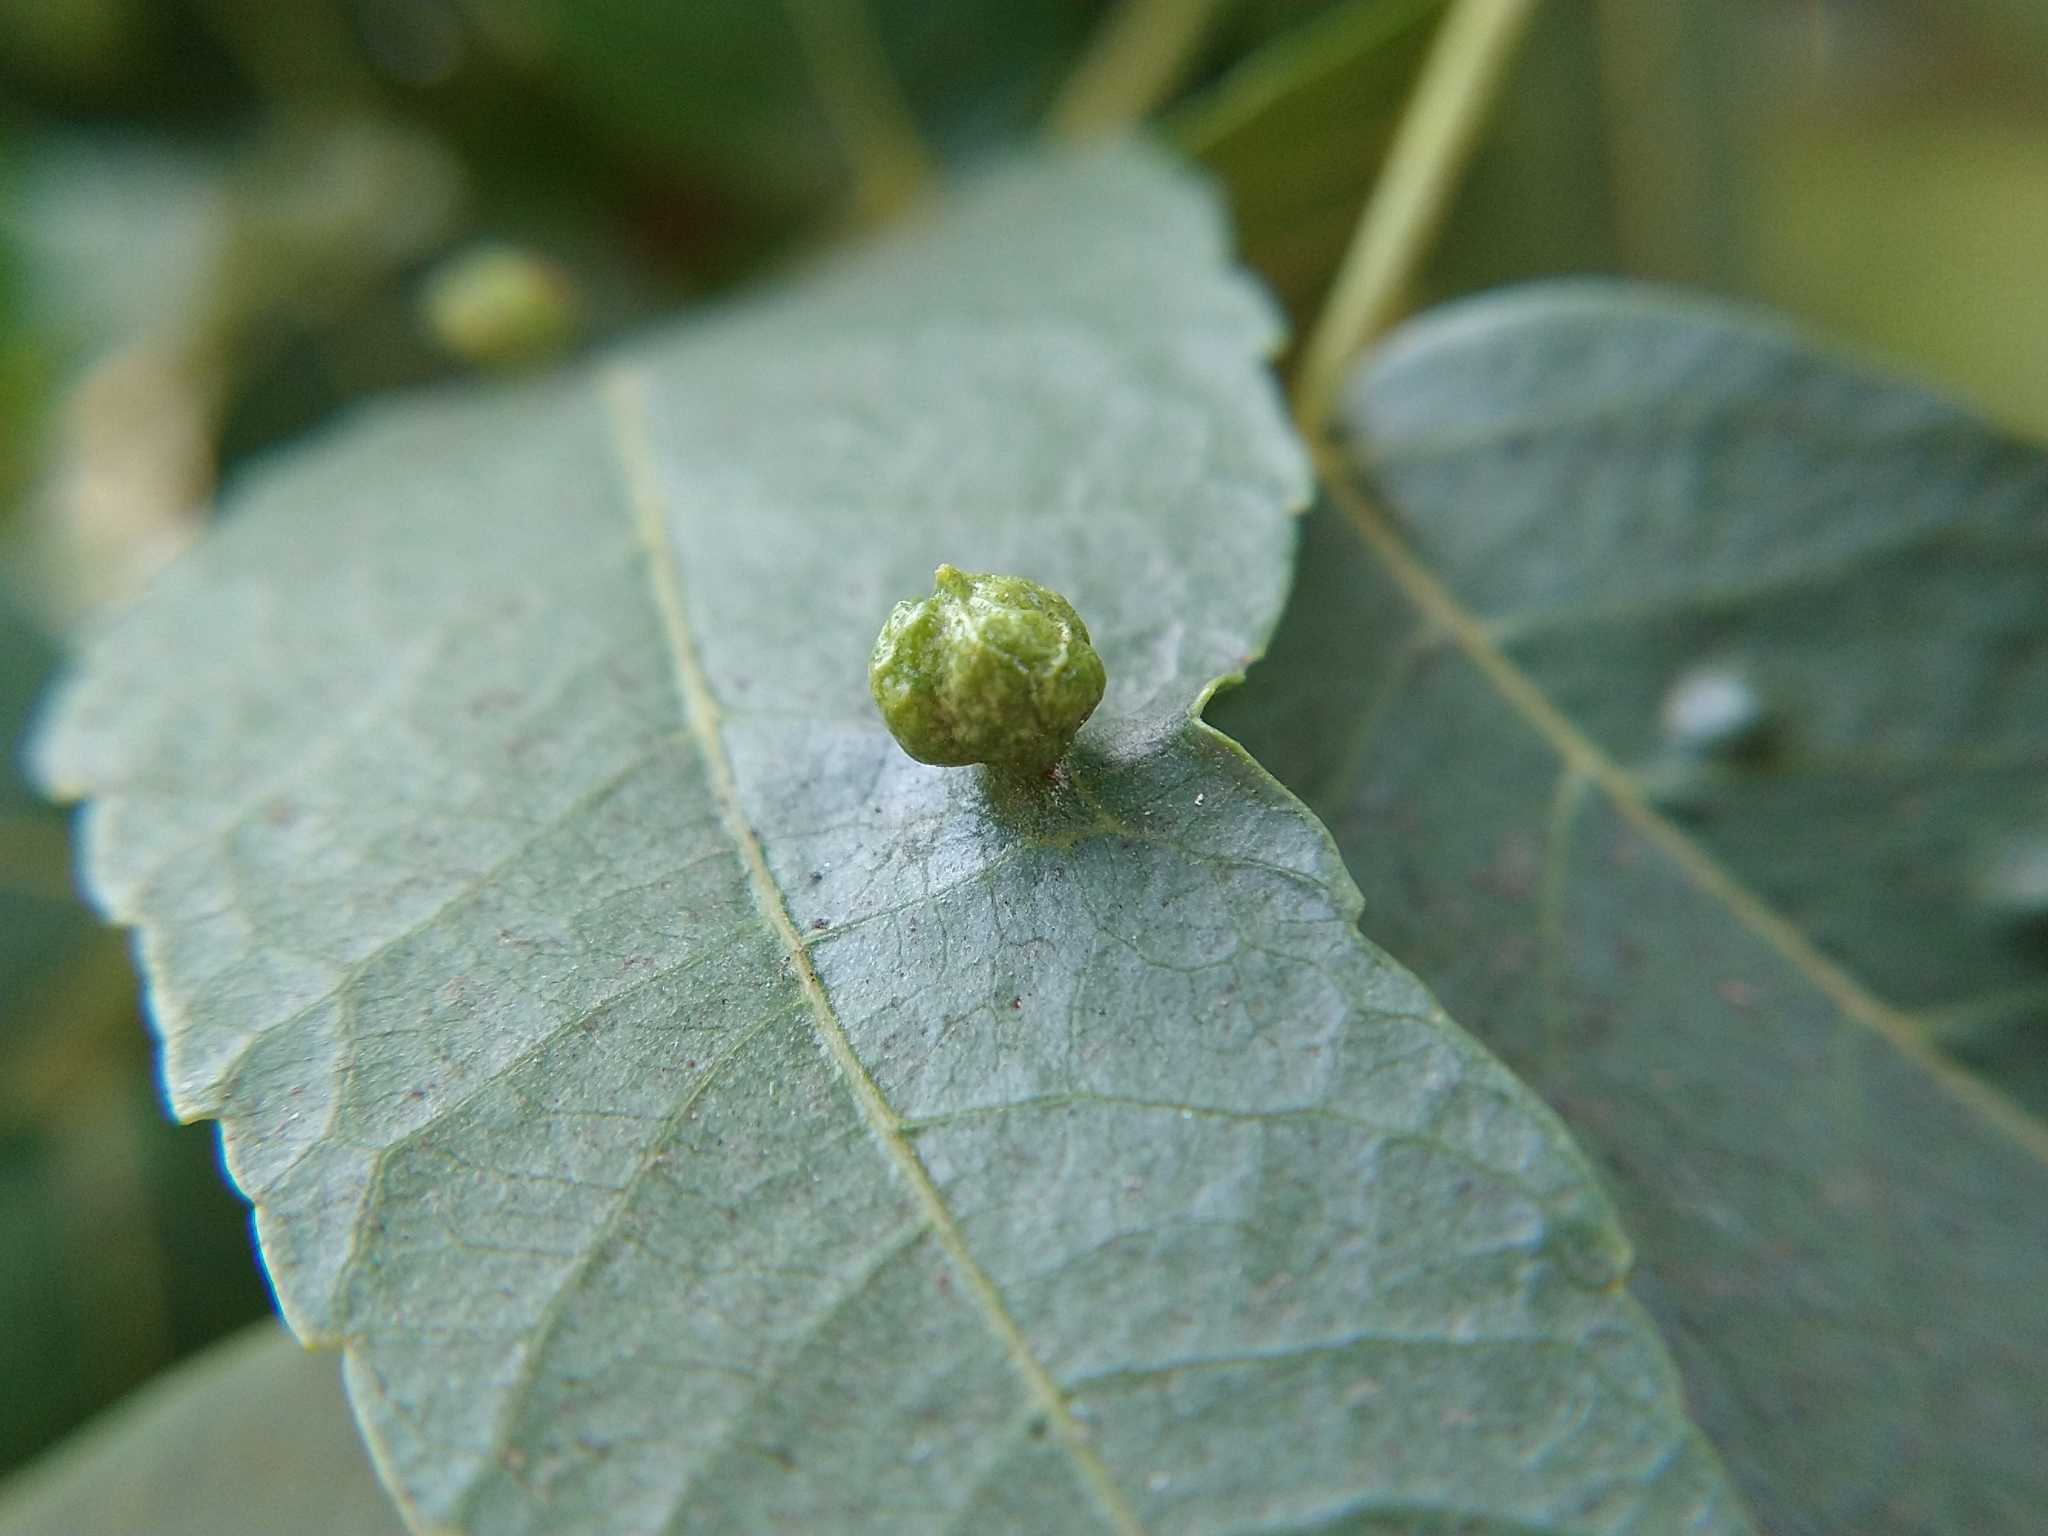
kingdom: Animalia
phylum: Arthropoda
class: Arachnida
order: Trombidiformes
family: Eriophyidae
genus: Aceria
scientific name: Aceria brachytarsus
